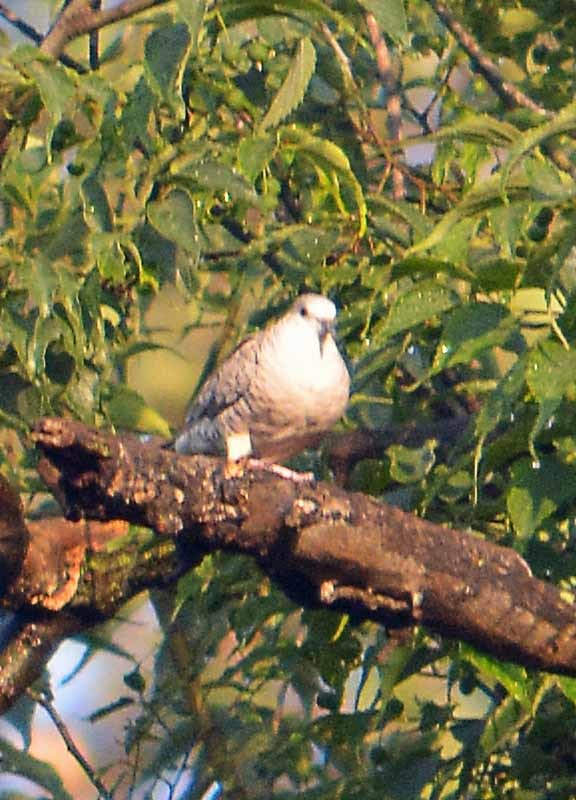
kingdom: Animalia
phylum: Chordata
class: Aves
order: Columbiformes
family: Columbidae
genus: Columbina
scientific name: Columbina inca
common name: Inca dove
